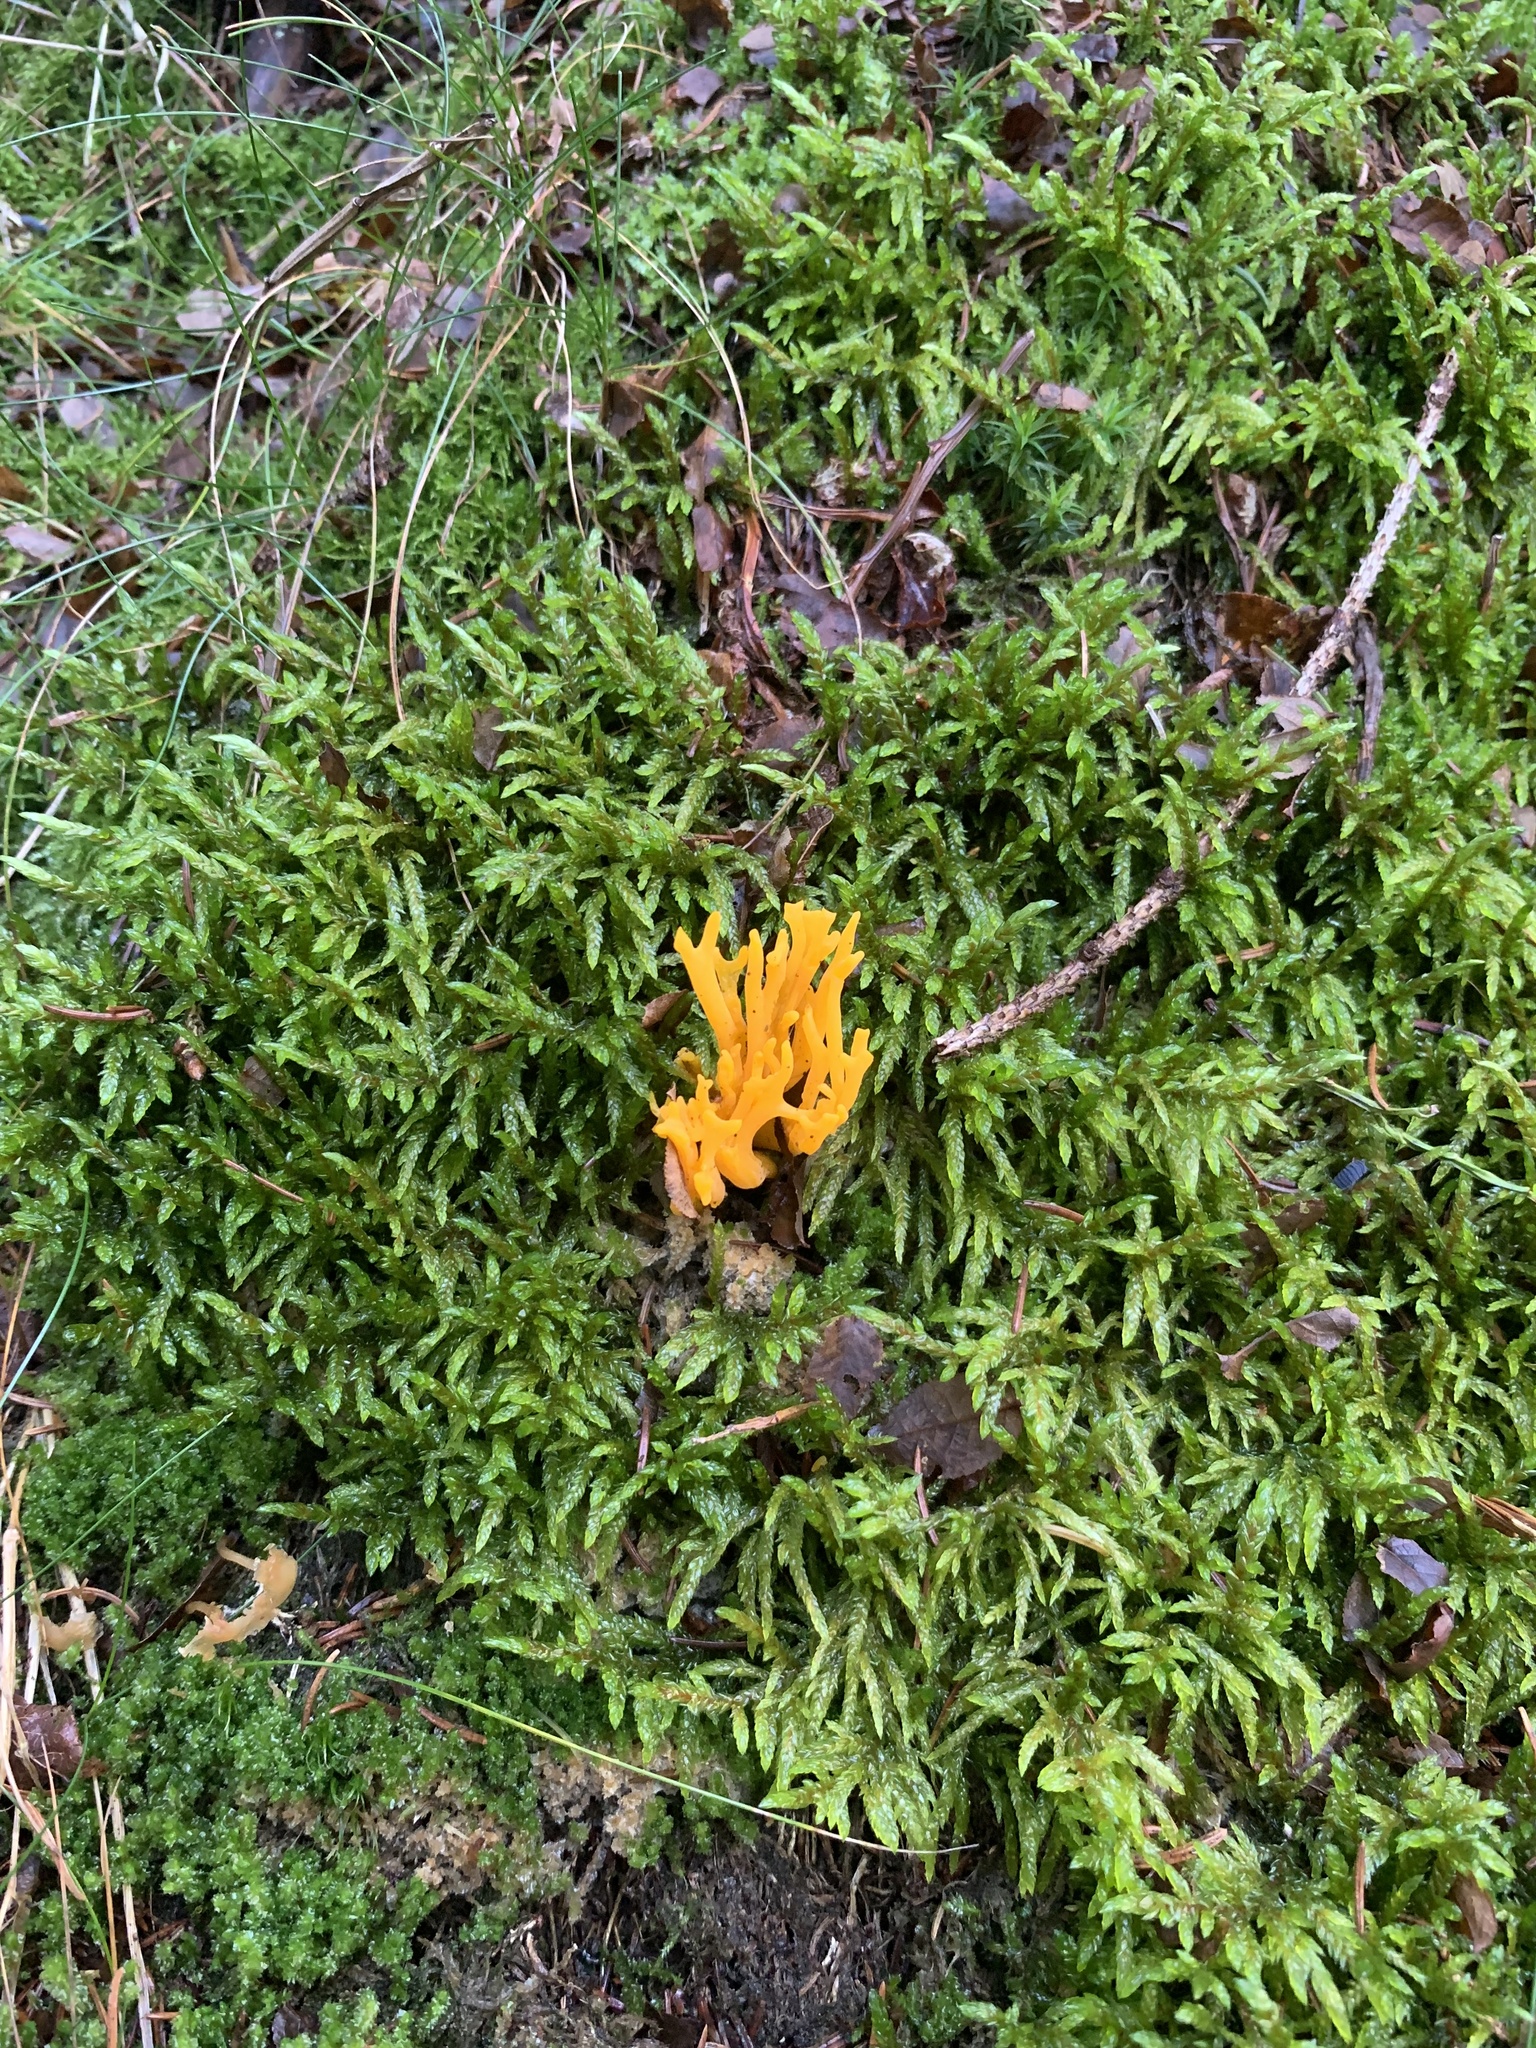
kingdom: Fungi
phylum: Basidiomycota
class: Dacrymycetes
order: Dacrymycetales
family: Dacrymycetaceae
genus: Calocera
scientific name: Calocera viscosa
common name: Yellow stagshorn
